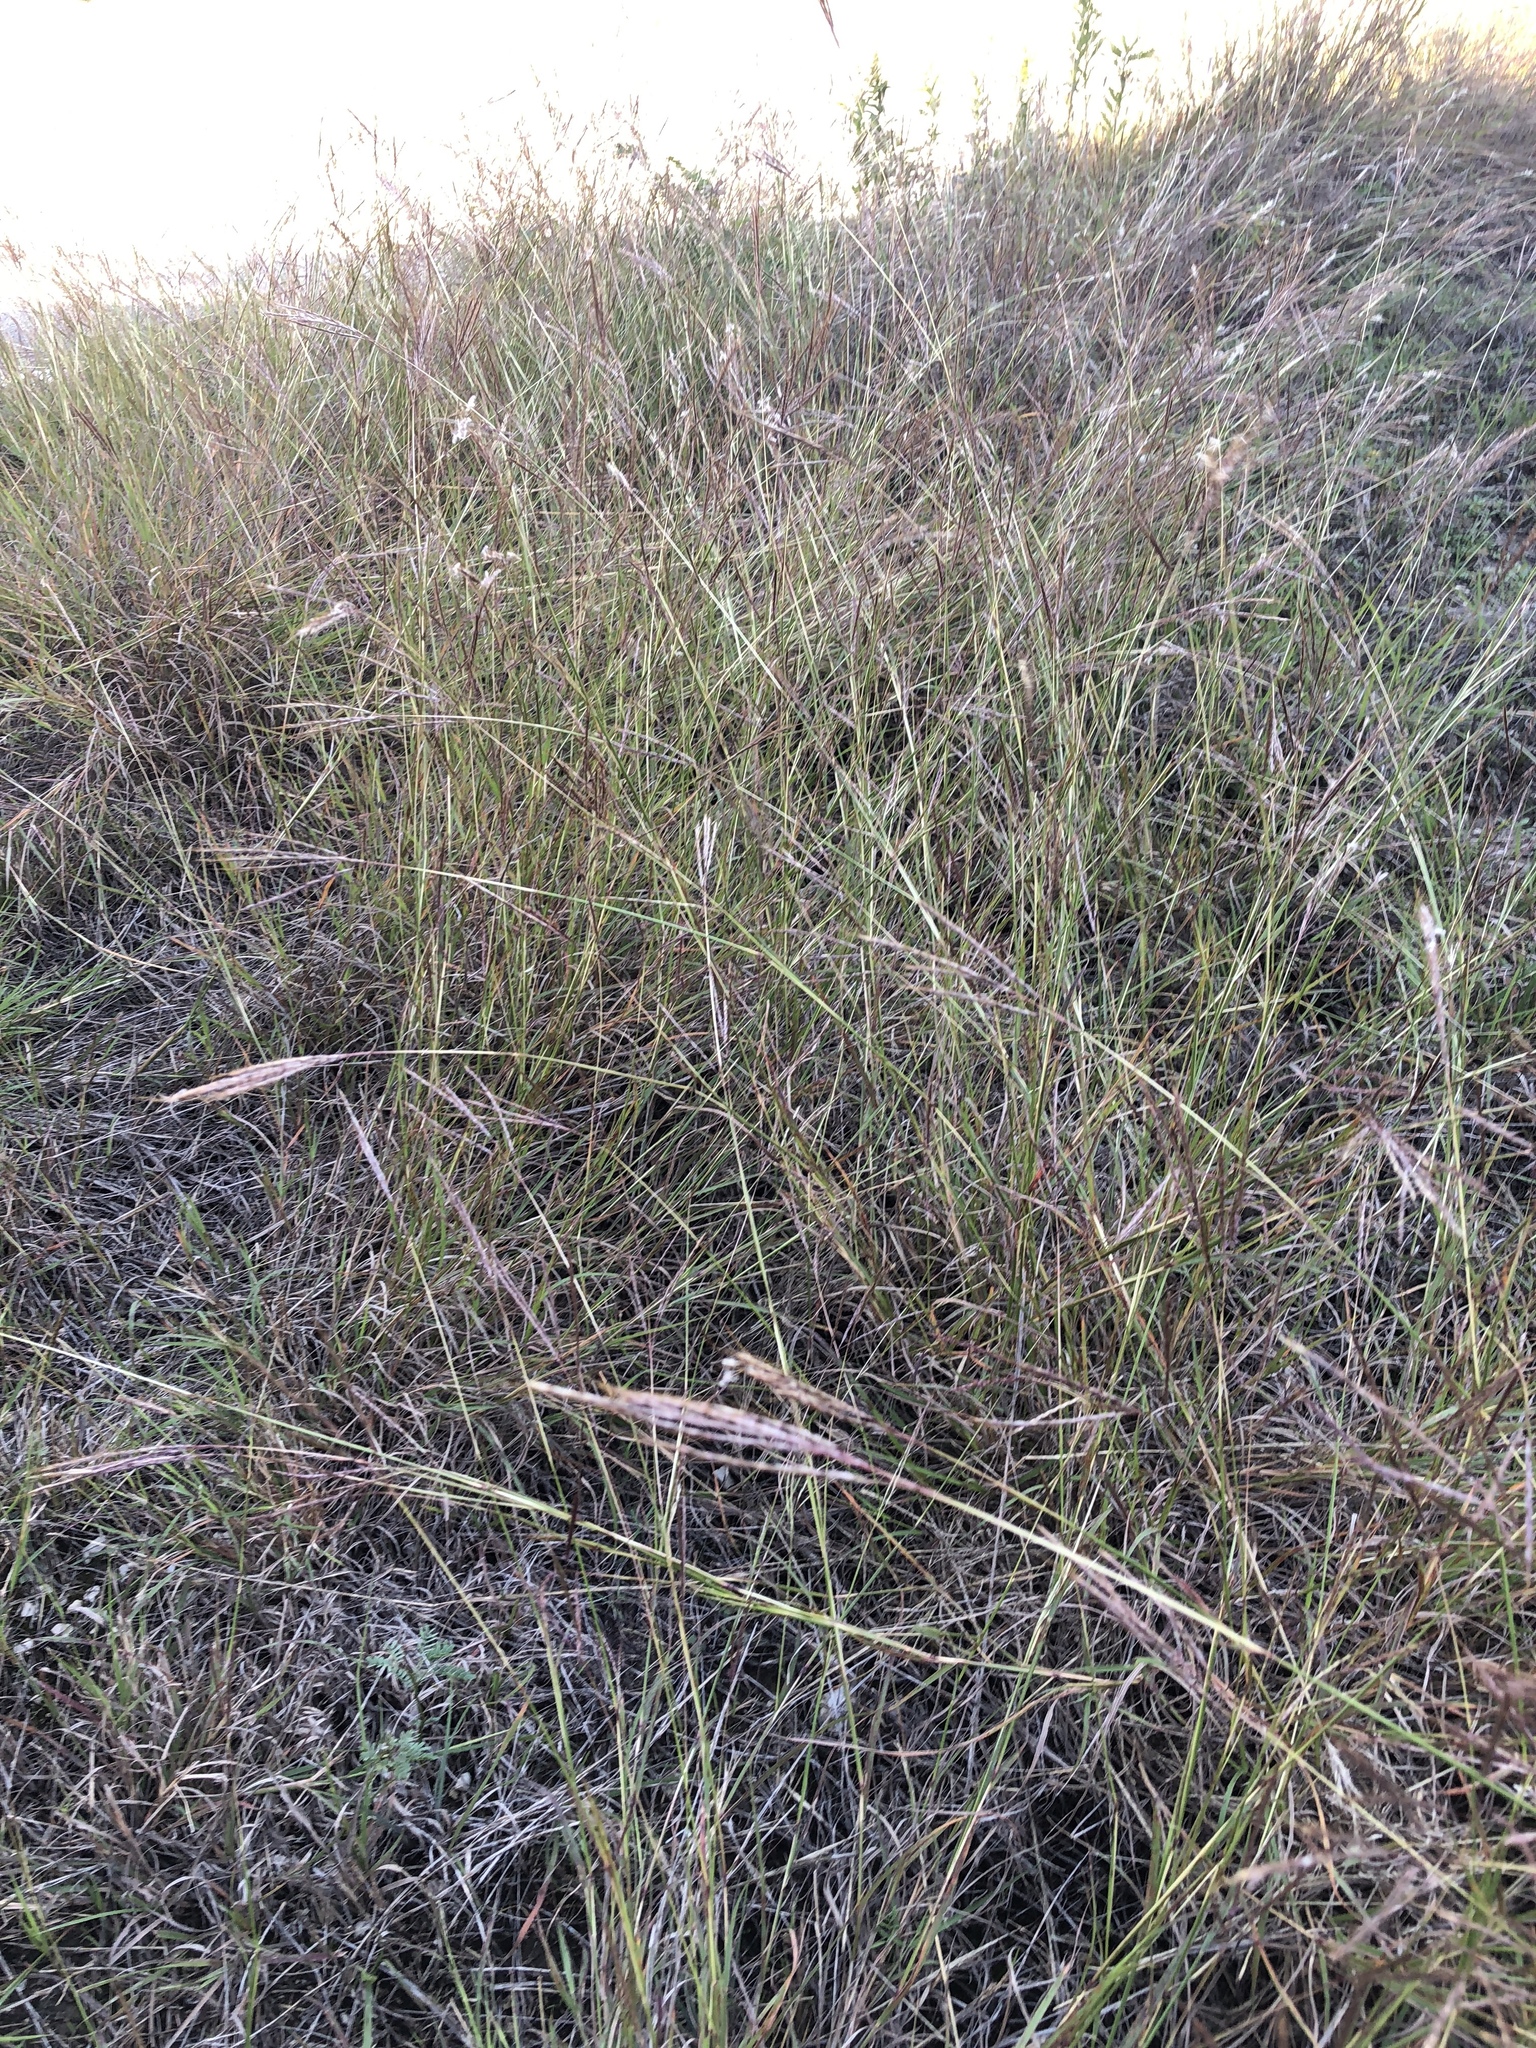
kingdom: Plantae
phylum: Tracheophyta
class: Liliopsida
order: Poales
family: Poaceae
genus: Bothriochloa
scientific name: Bothriochloa ischaemum
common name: Yellow bluestem
